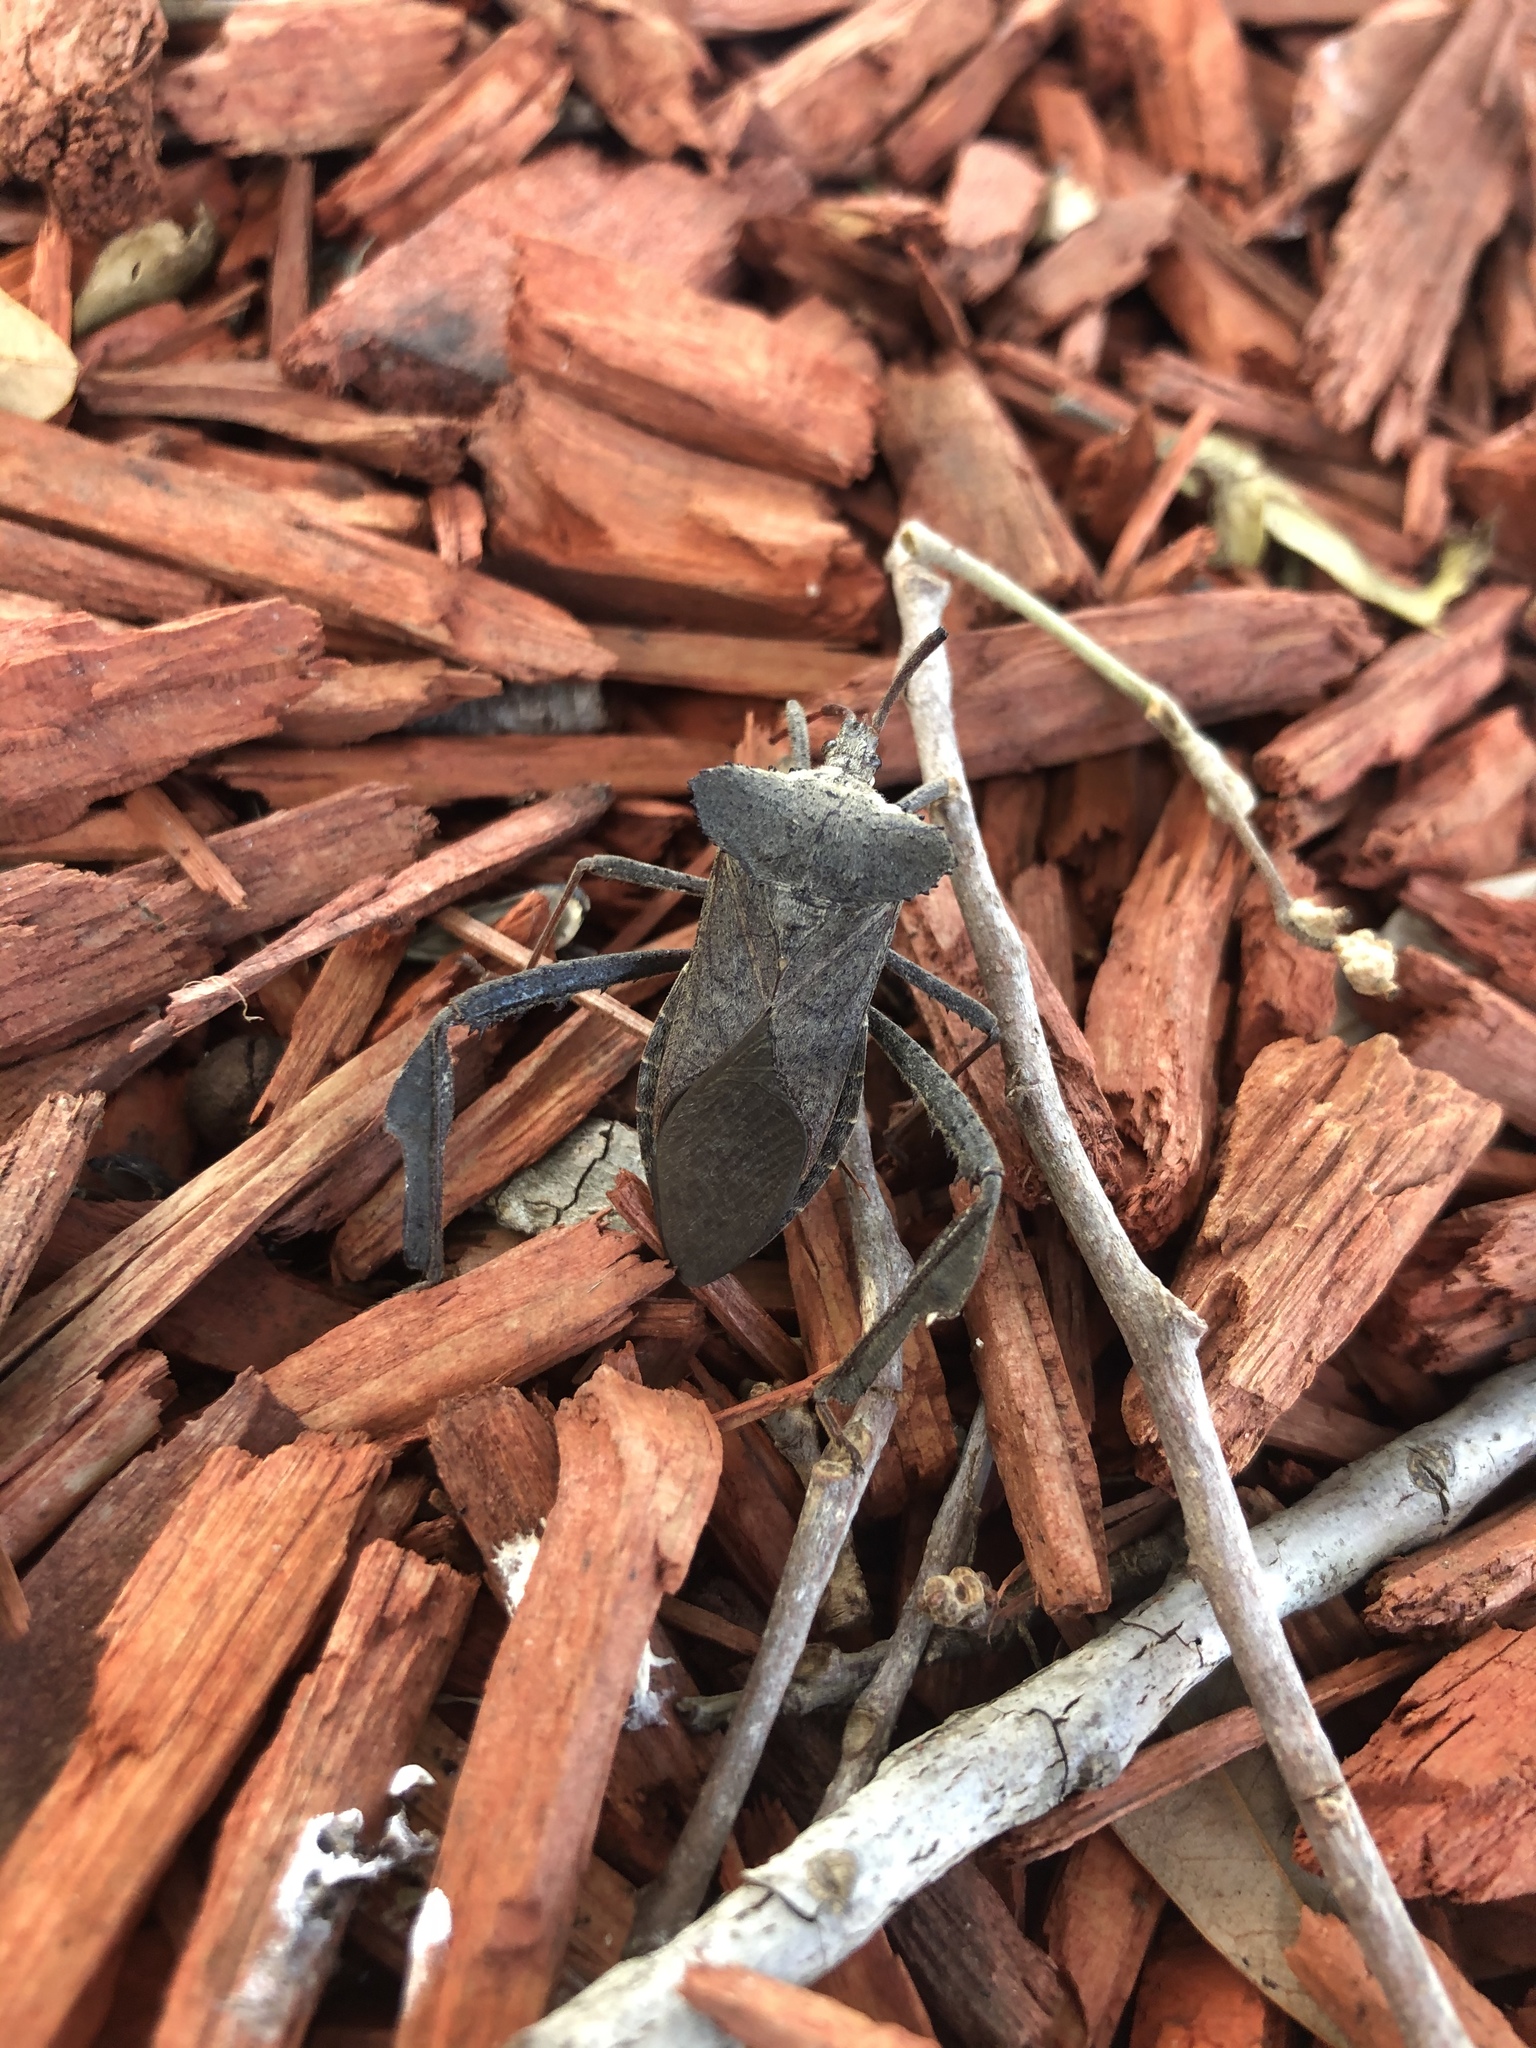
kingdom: Animalia
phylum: Arthropoda
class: Insecta
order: Hemiptera
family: Coreidae
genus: Acanthocephala
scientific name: Acanthocephala declivis
